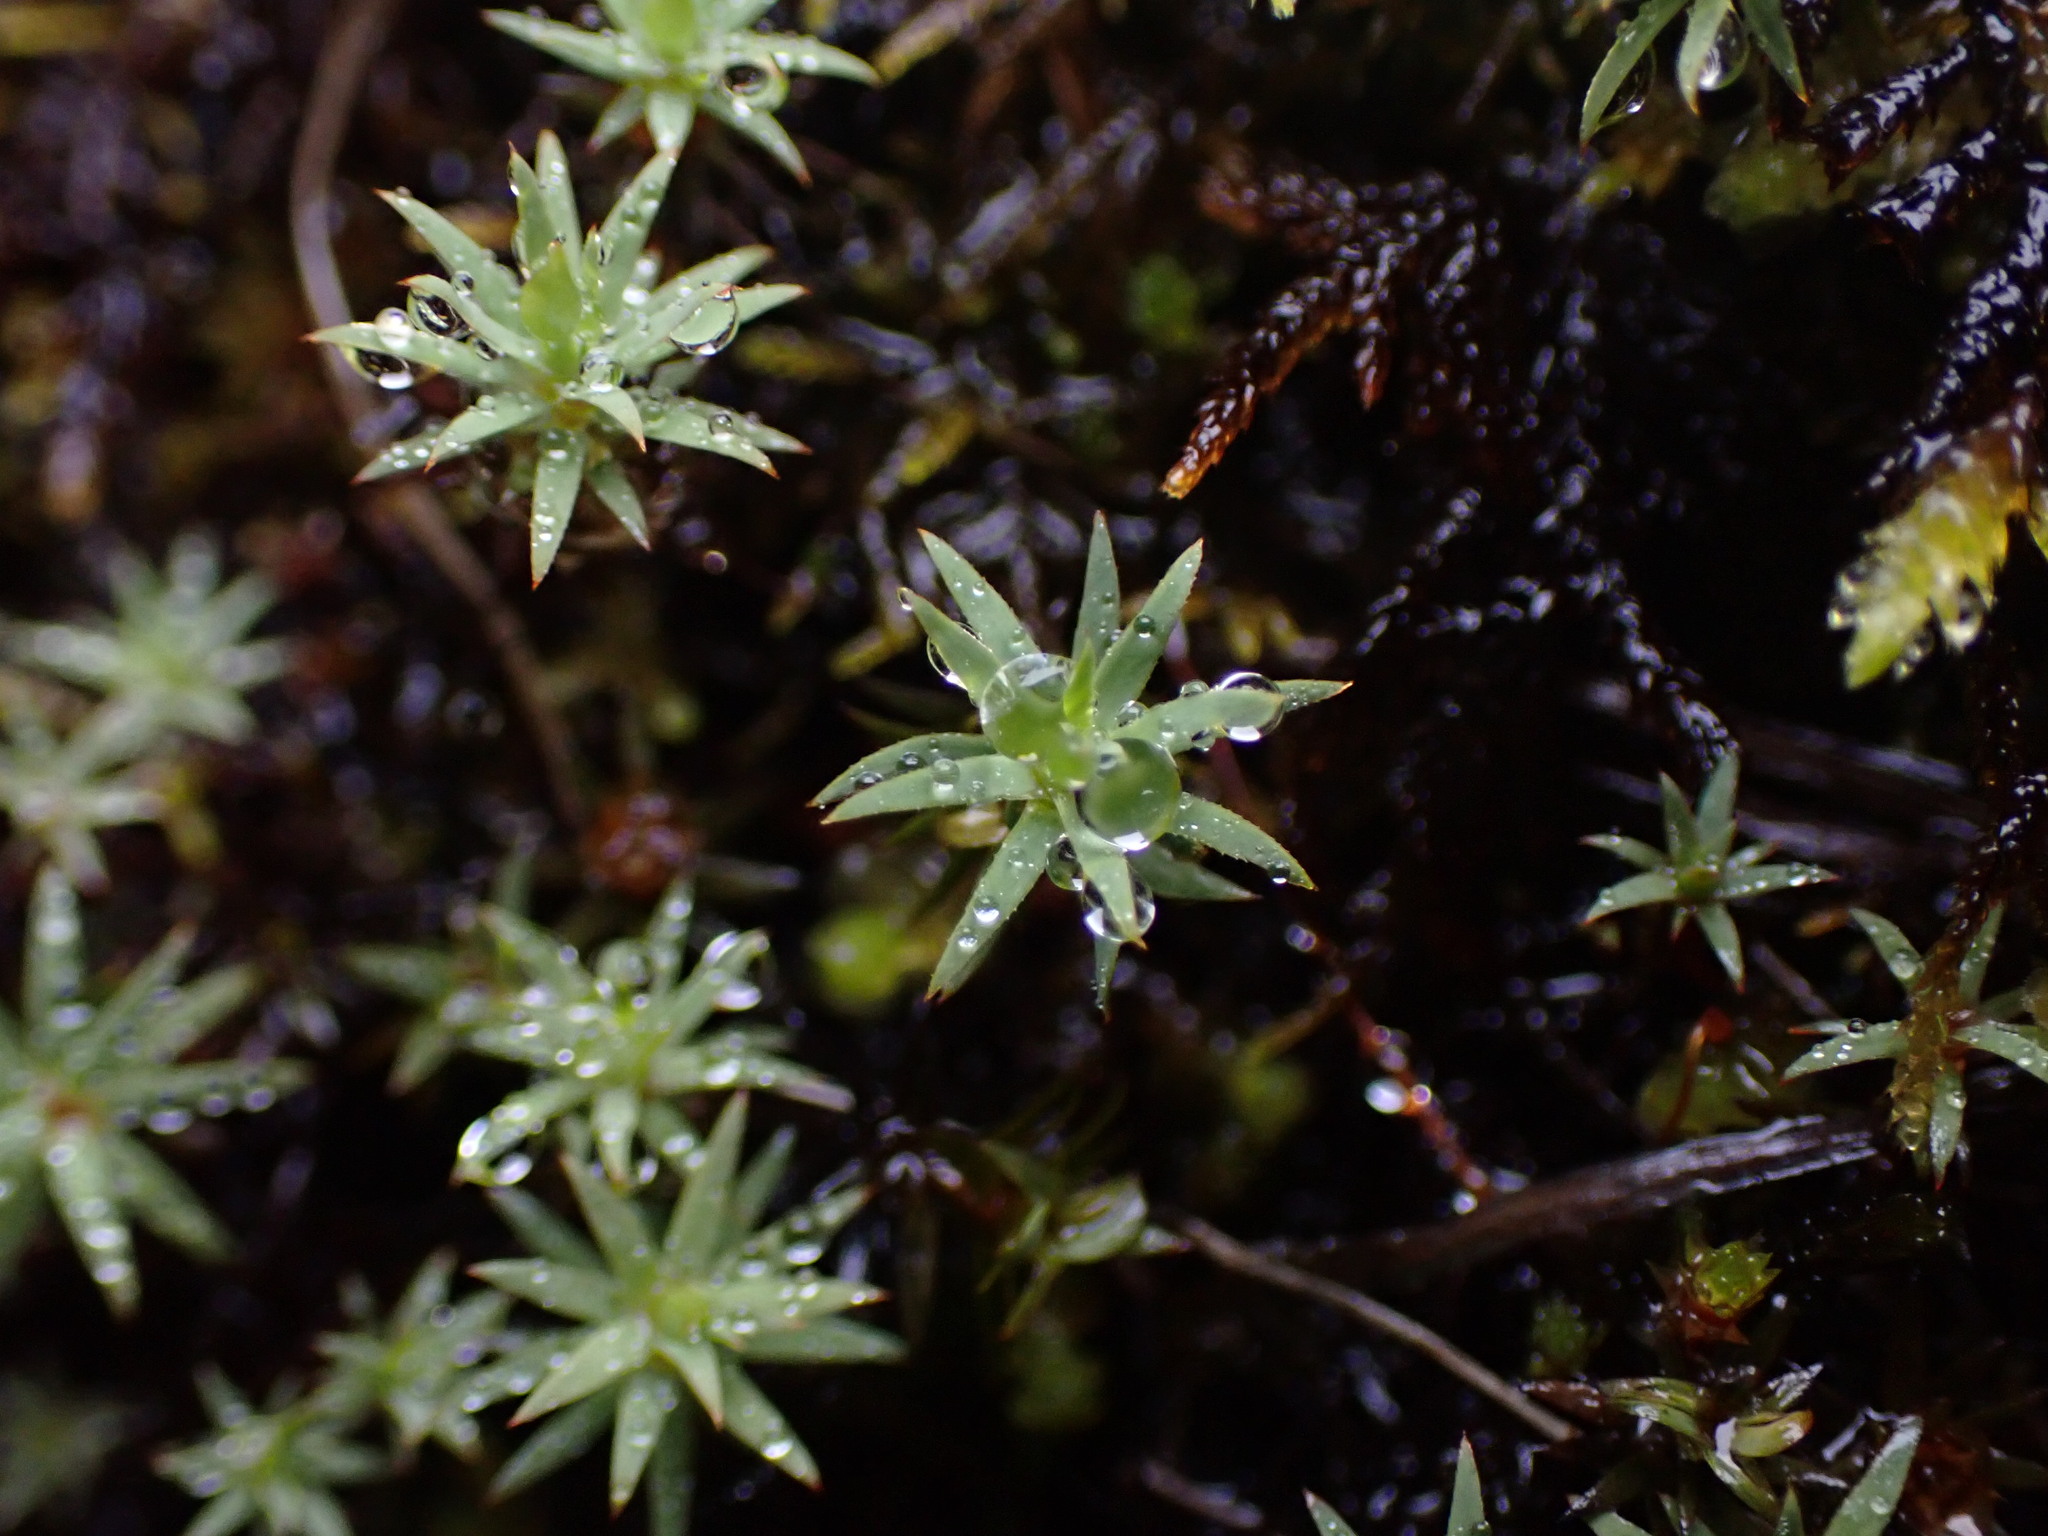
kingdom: Plantae
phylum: Bryophyta
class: Polytrichopsida
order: Polytrichales
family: Polytrichaceae
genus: Pogonatum
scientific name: Pogonatum urnigerum
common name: Urn hair moss
